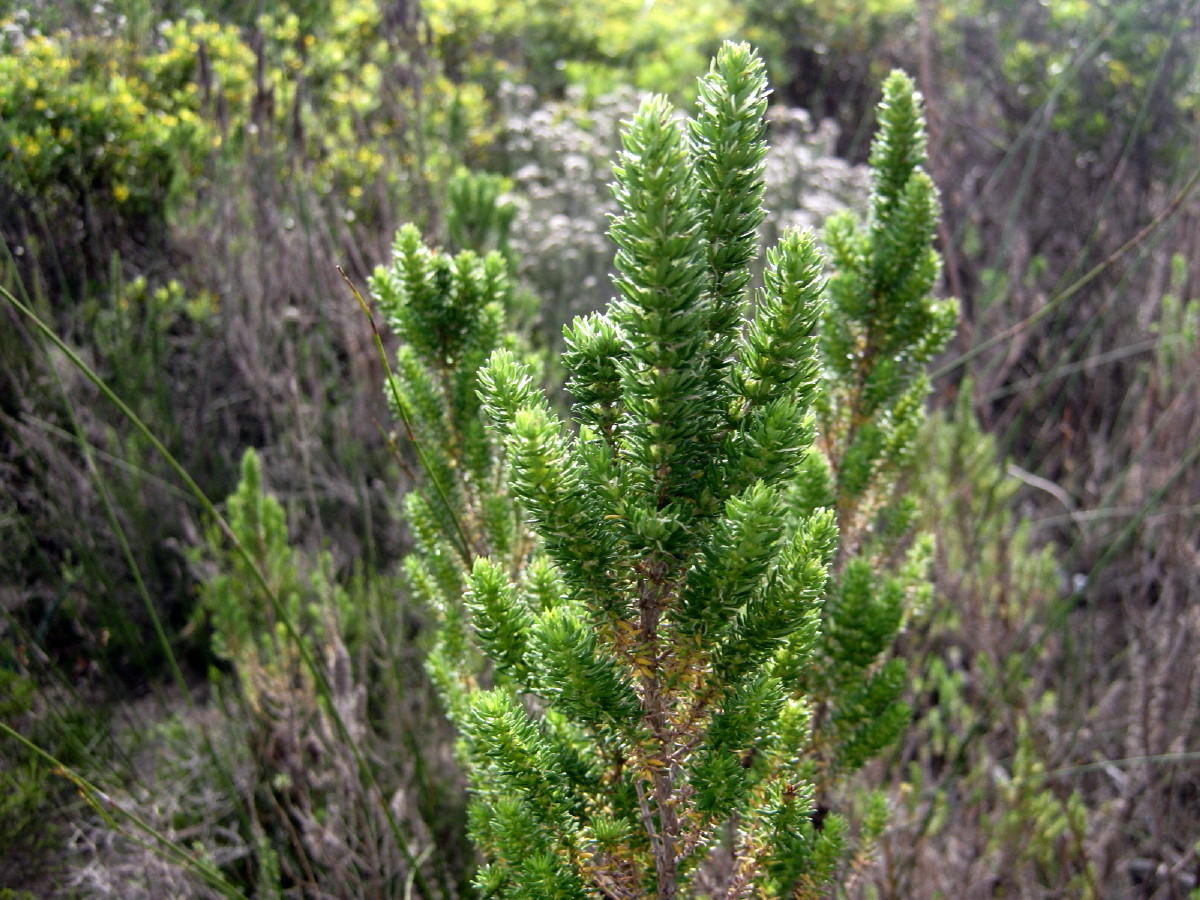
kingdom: Plantae
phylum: Tracheophyta
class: Magnoliopsida
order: Gentianales
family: Rubiaceae
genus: Anthospermum
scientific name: Anthospermum aethiopicum
